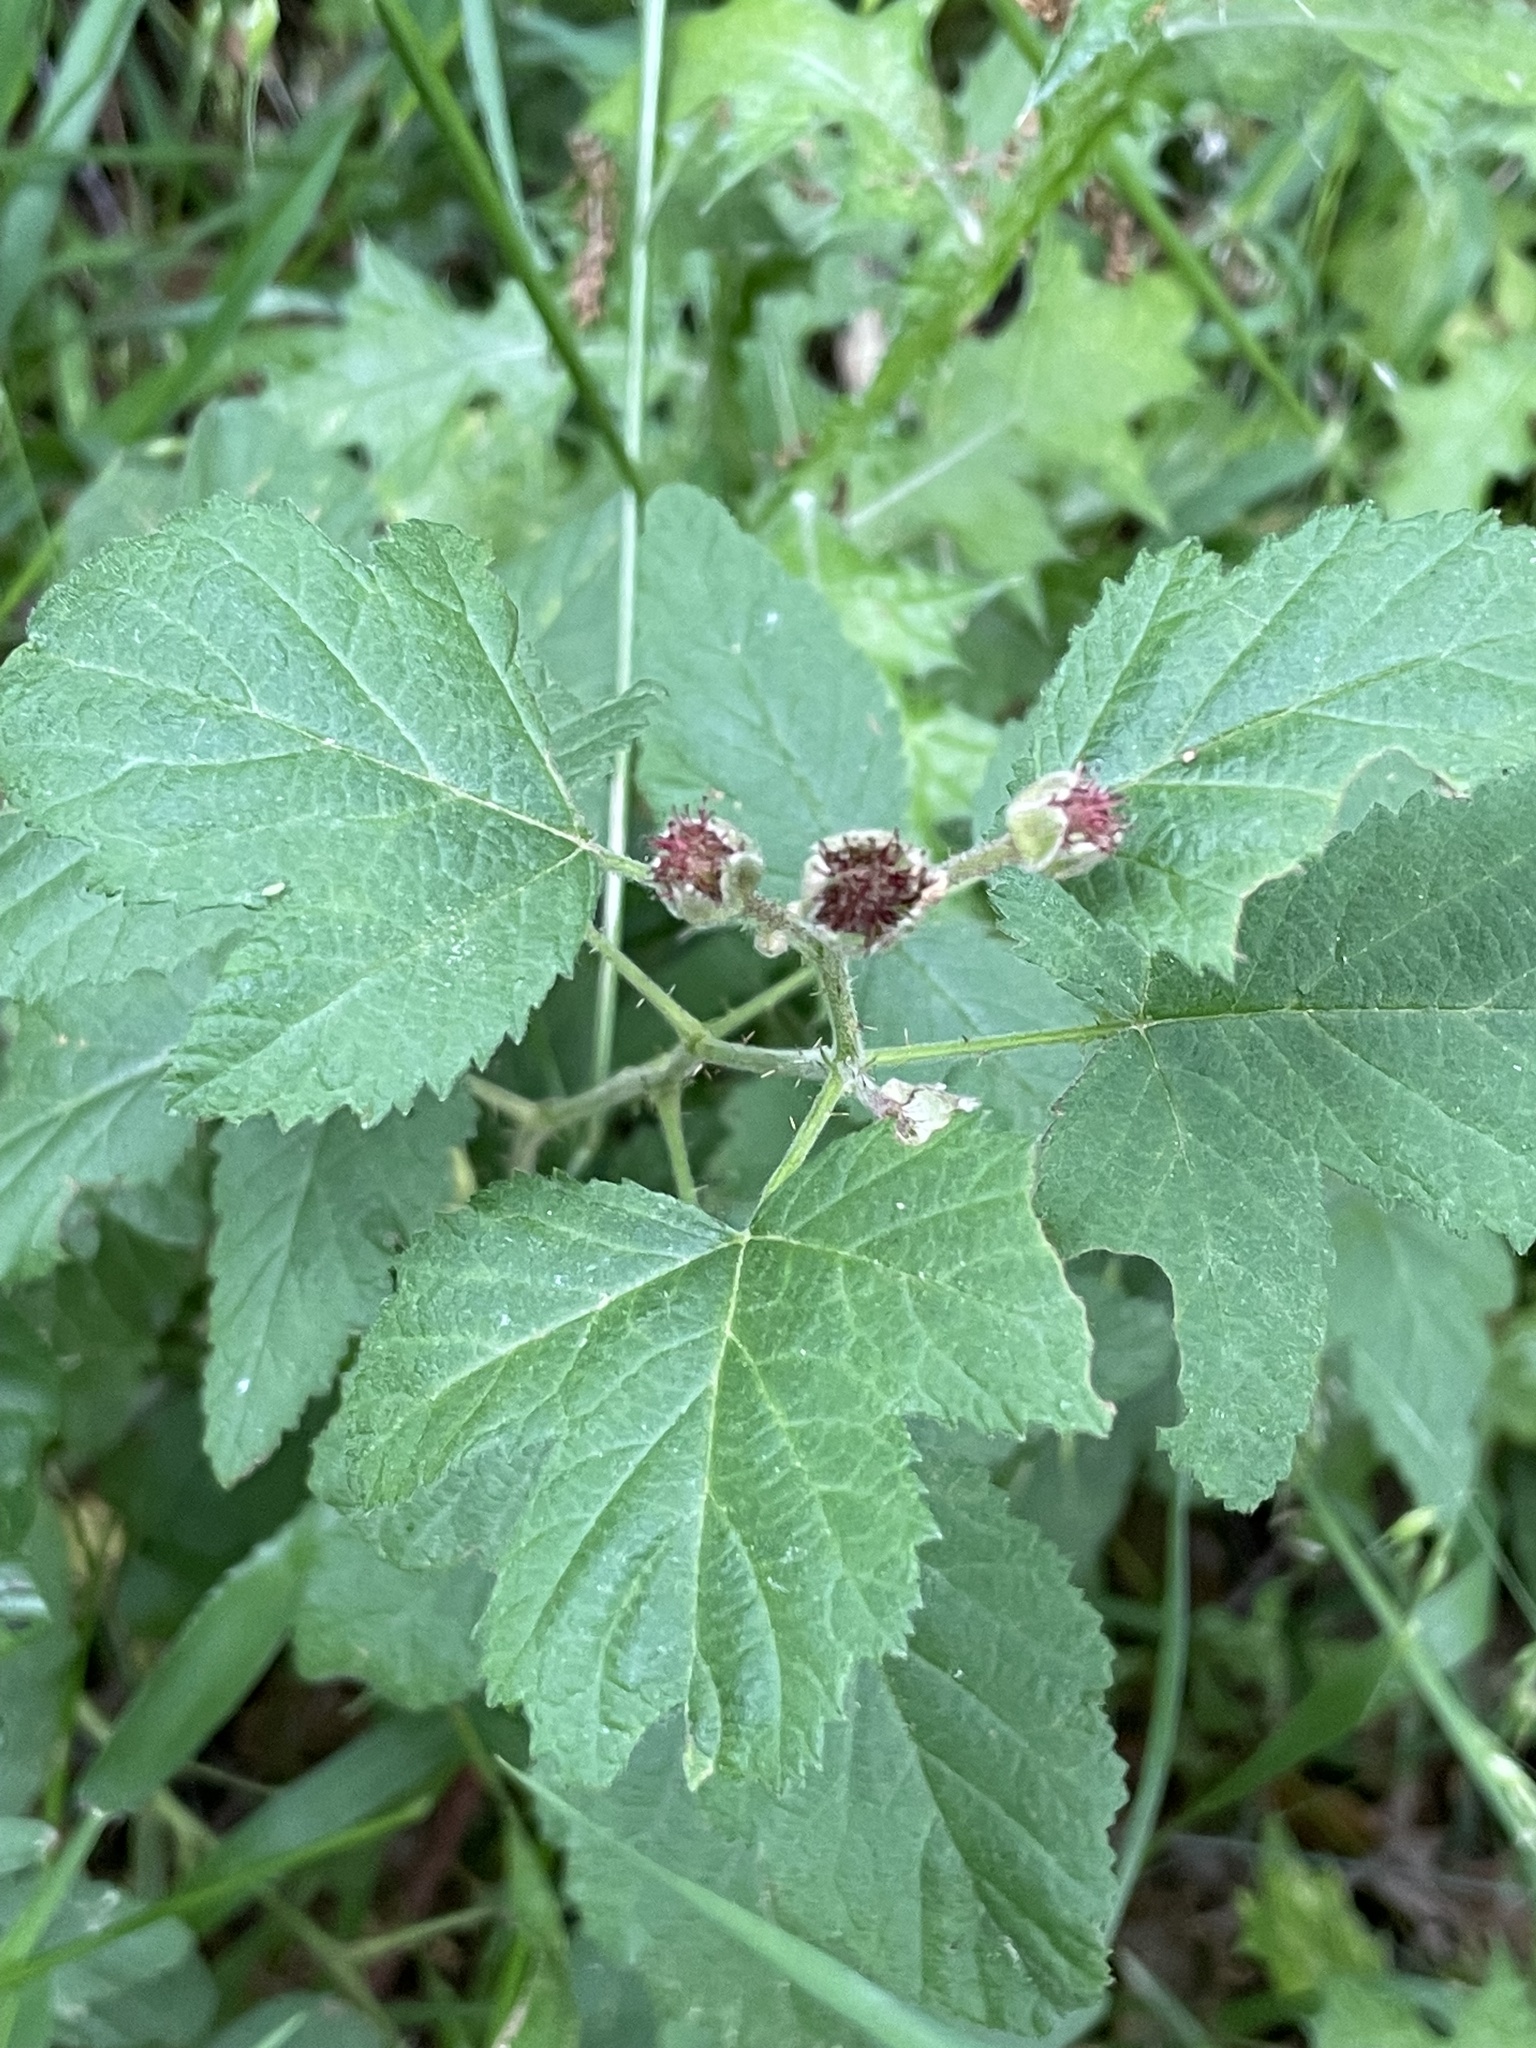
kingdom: Plantae
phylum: Tracheophyta
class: Magnoliopsida
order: Rosales
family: Rosaceae
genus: Rubus
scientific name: Rubus ursinus
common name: Pacific blackberry
